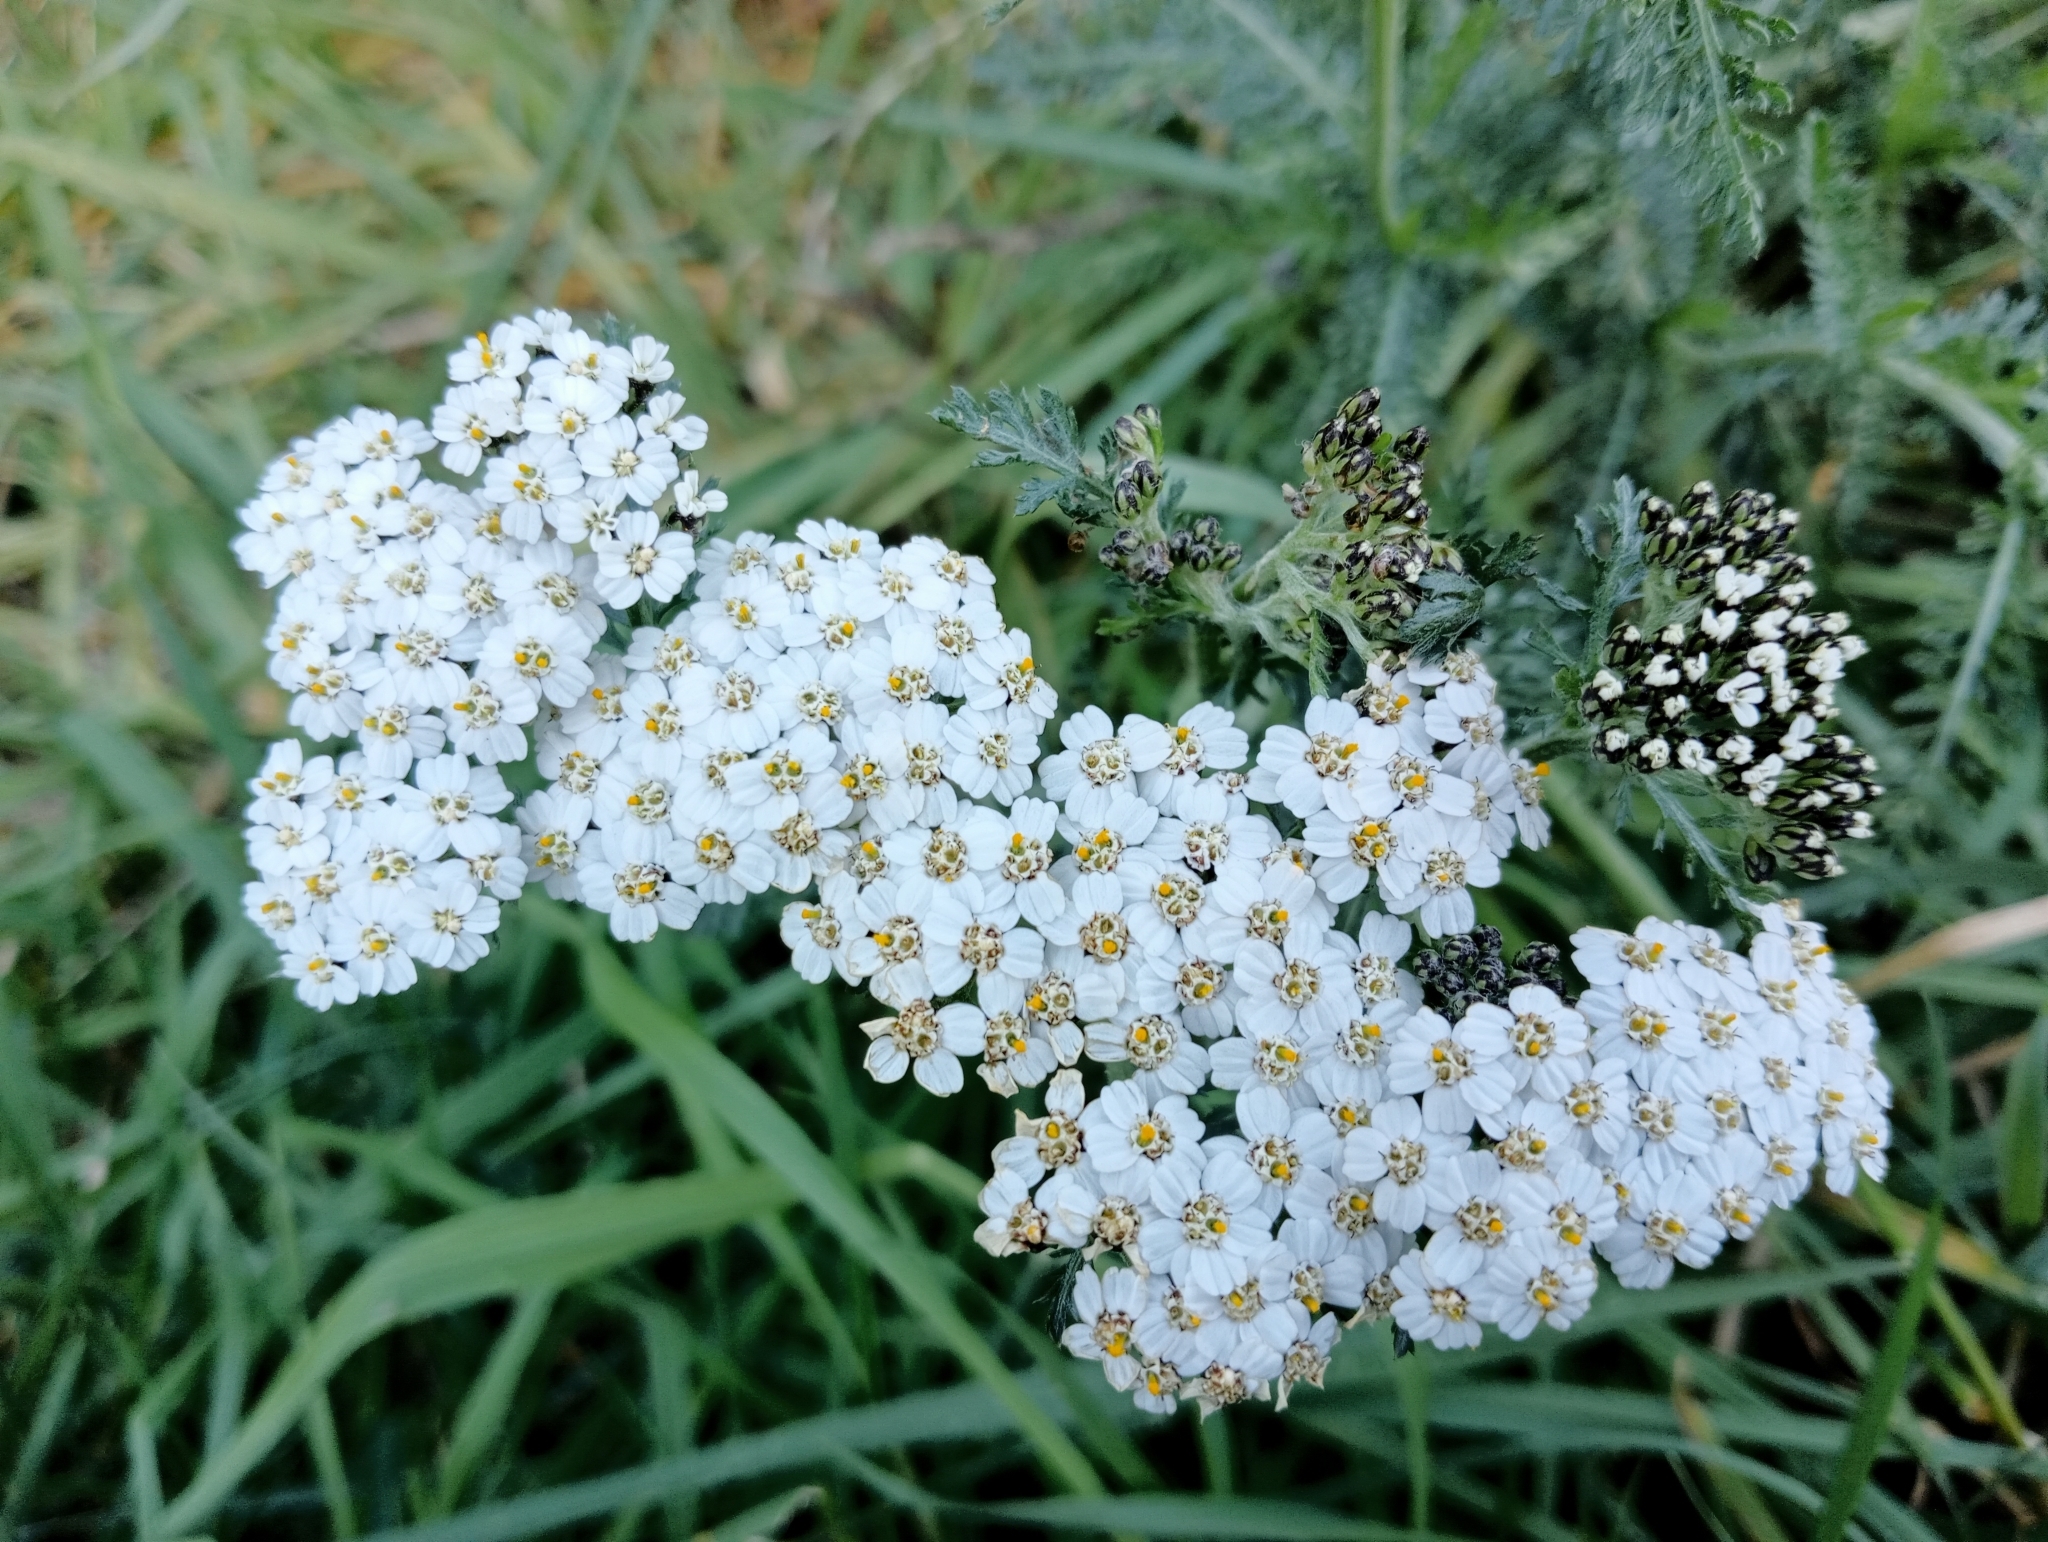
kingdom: Plantae
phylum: Tracheophyta
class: Magnoliopsida
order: Asterales
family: Asteraceae
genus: Achillea
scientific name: Achillea millefolium
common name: Yarrow
